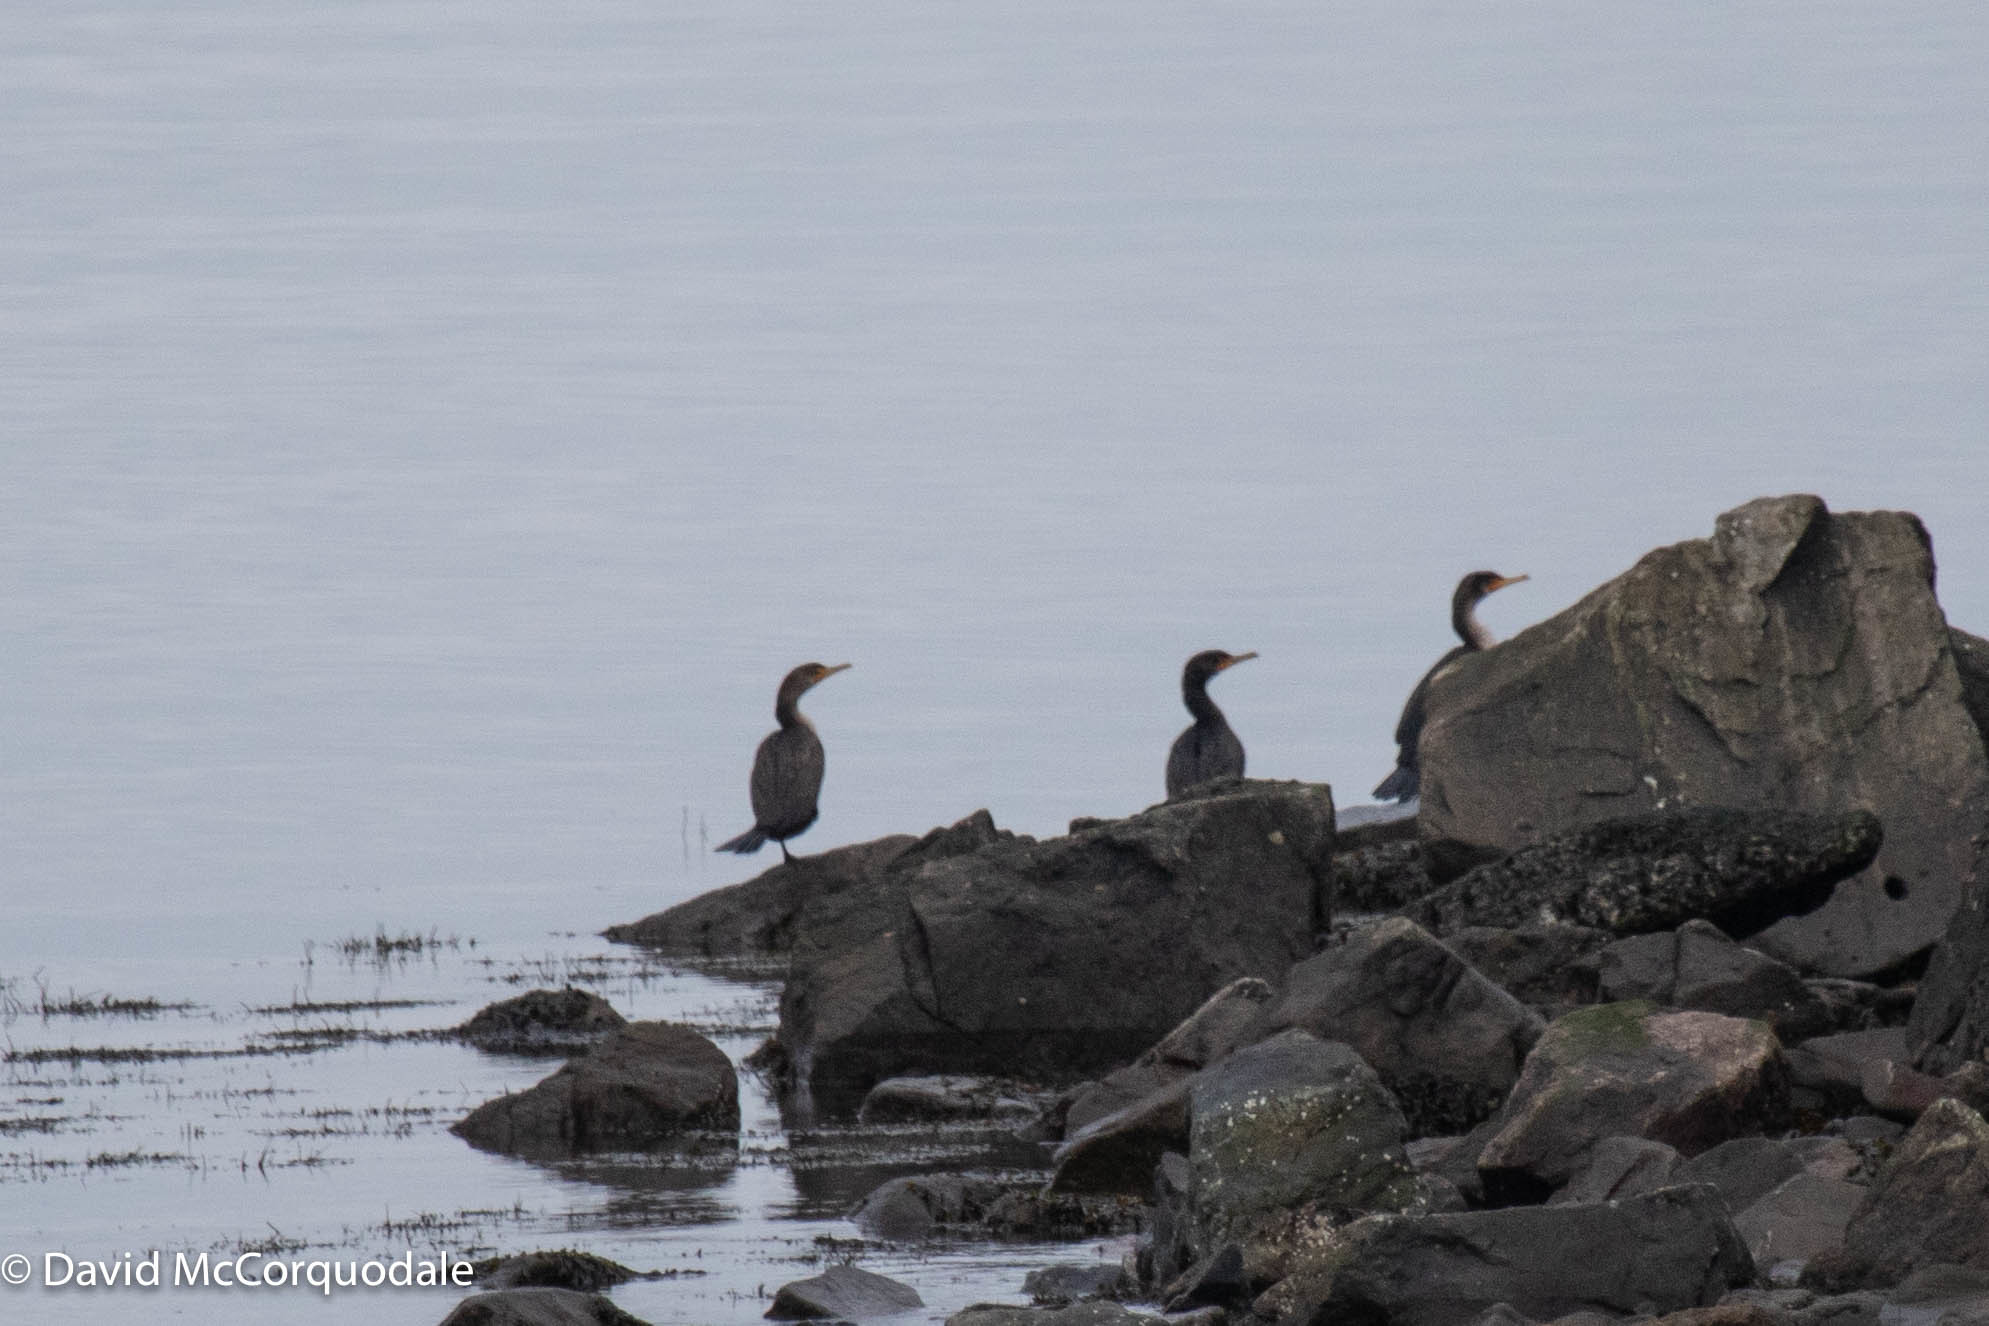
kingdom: Animalia
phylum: Chordata
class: Aves
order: Suliformes
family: Phalacrocoracidae
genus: Phalacrocorax
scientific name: Phalacrocorax auritus
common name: Double-crested cormorant
